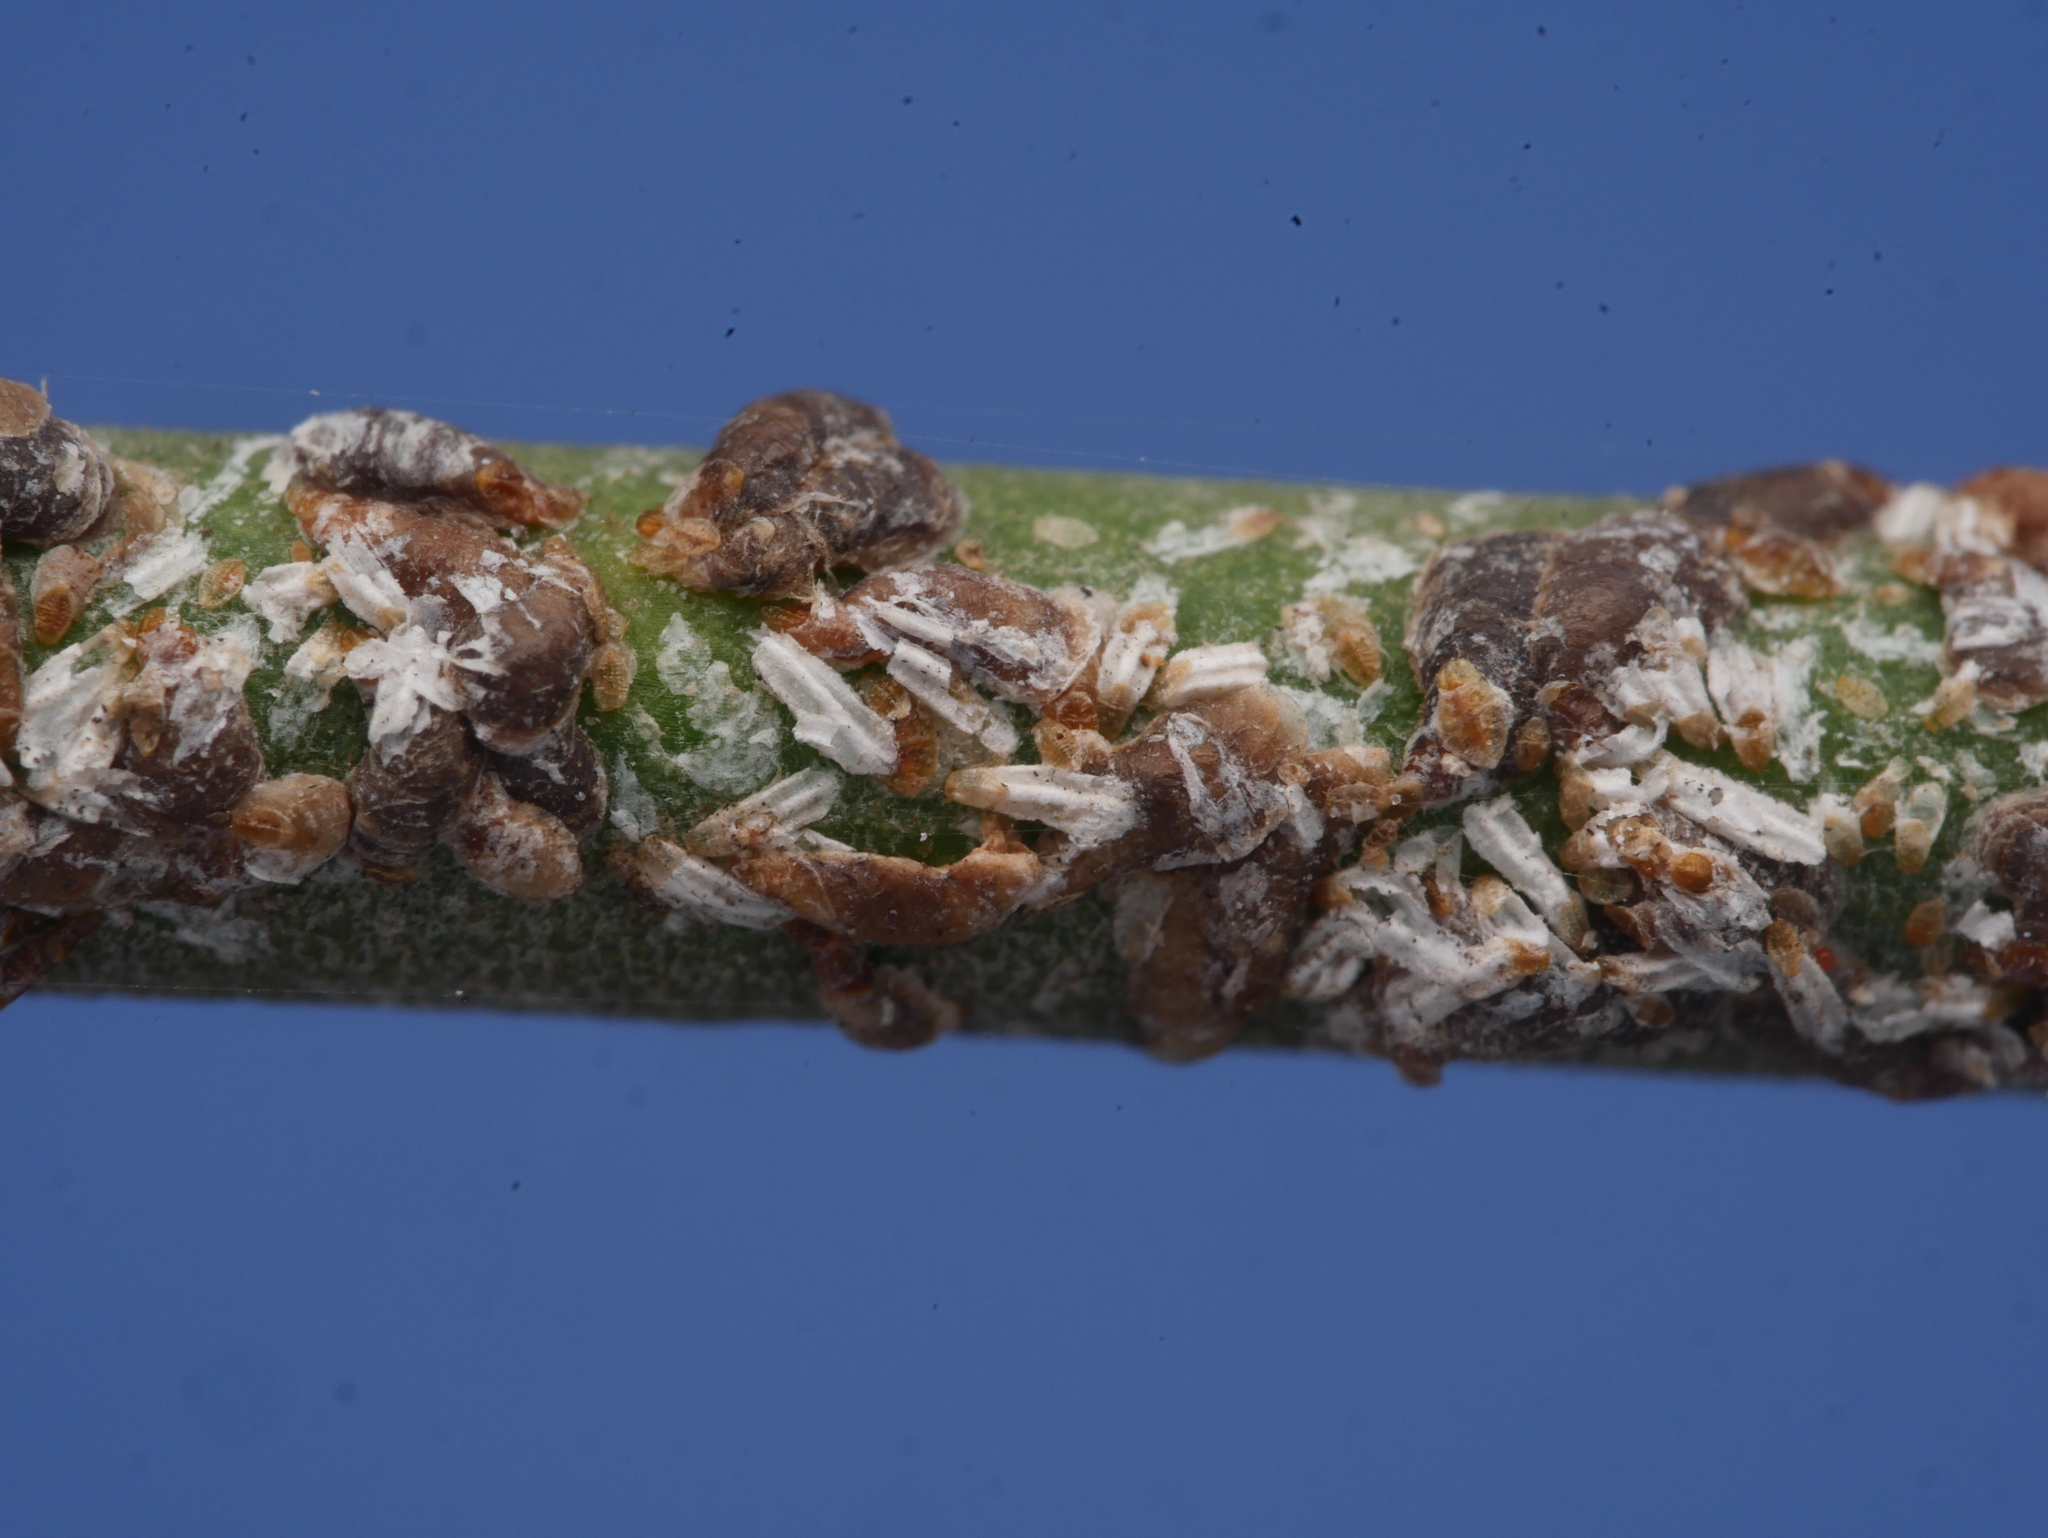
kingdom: Animalia
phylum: Arthropoda
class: Insecta
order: Hemiptera
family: Diaspididae
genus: Unaspis
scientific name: Unaspis euonymi
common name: Euonymus scale
